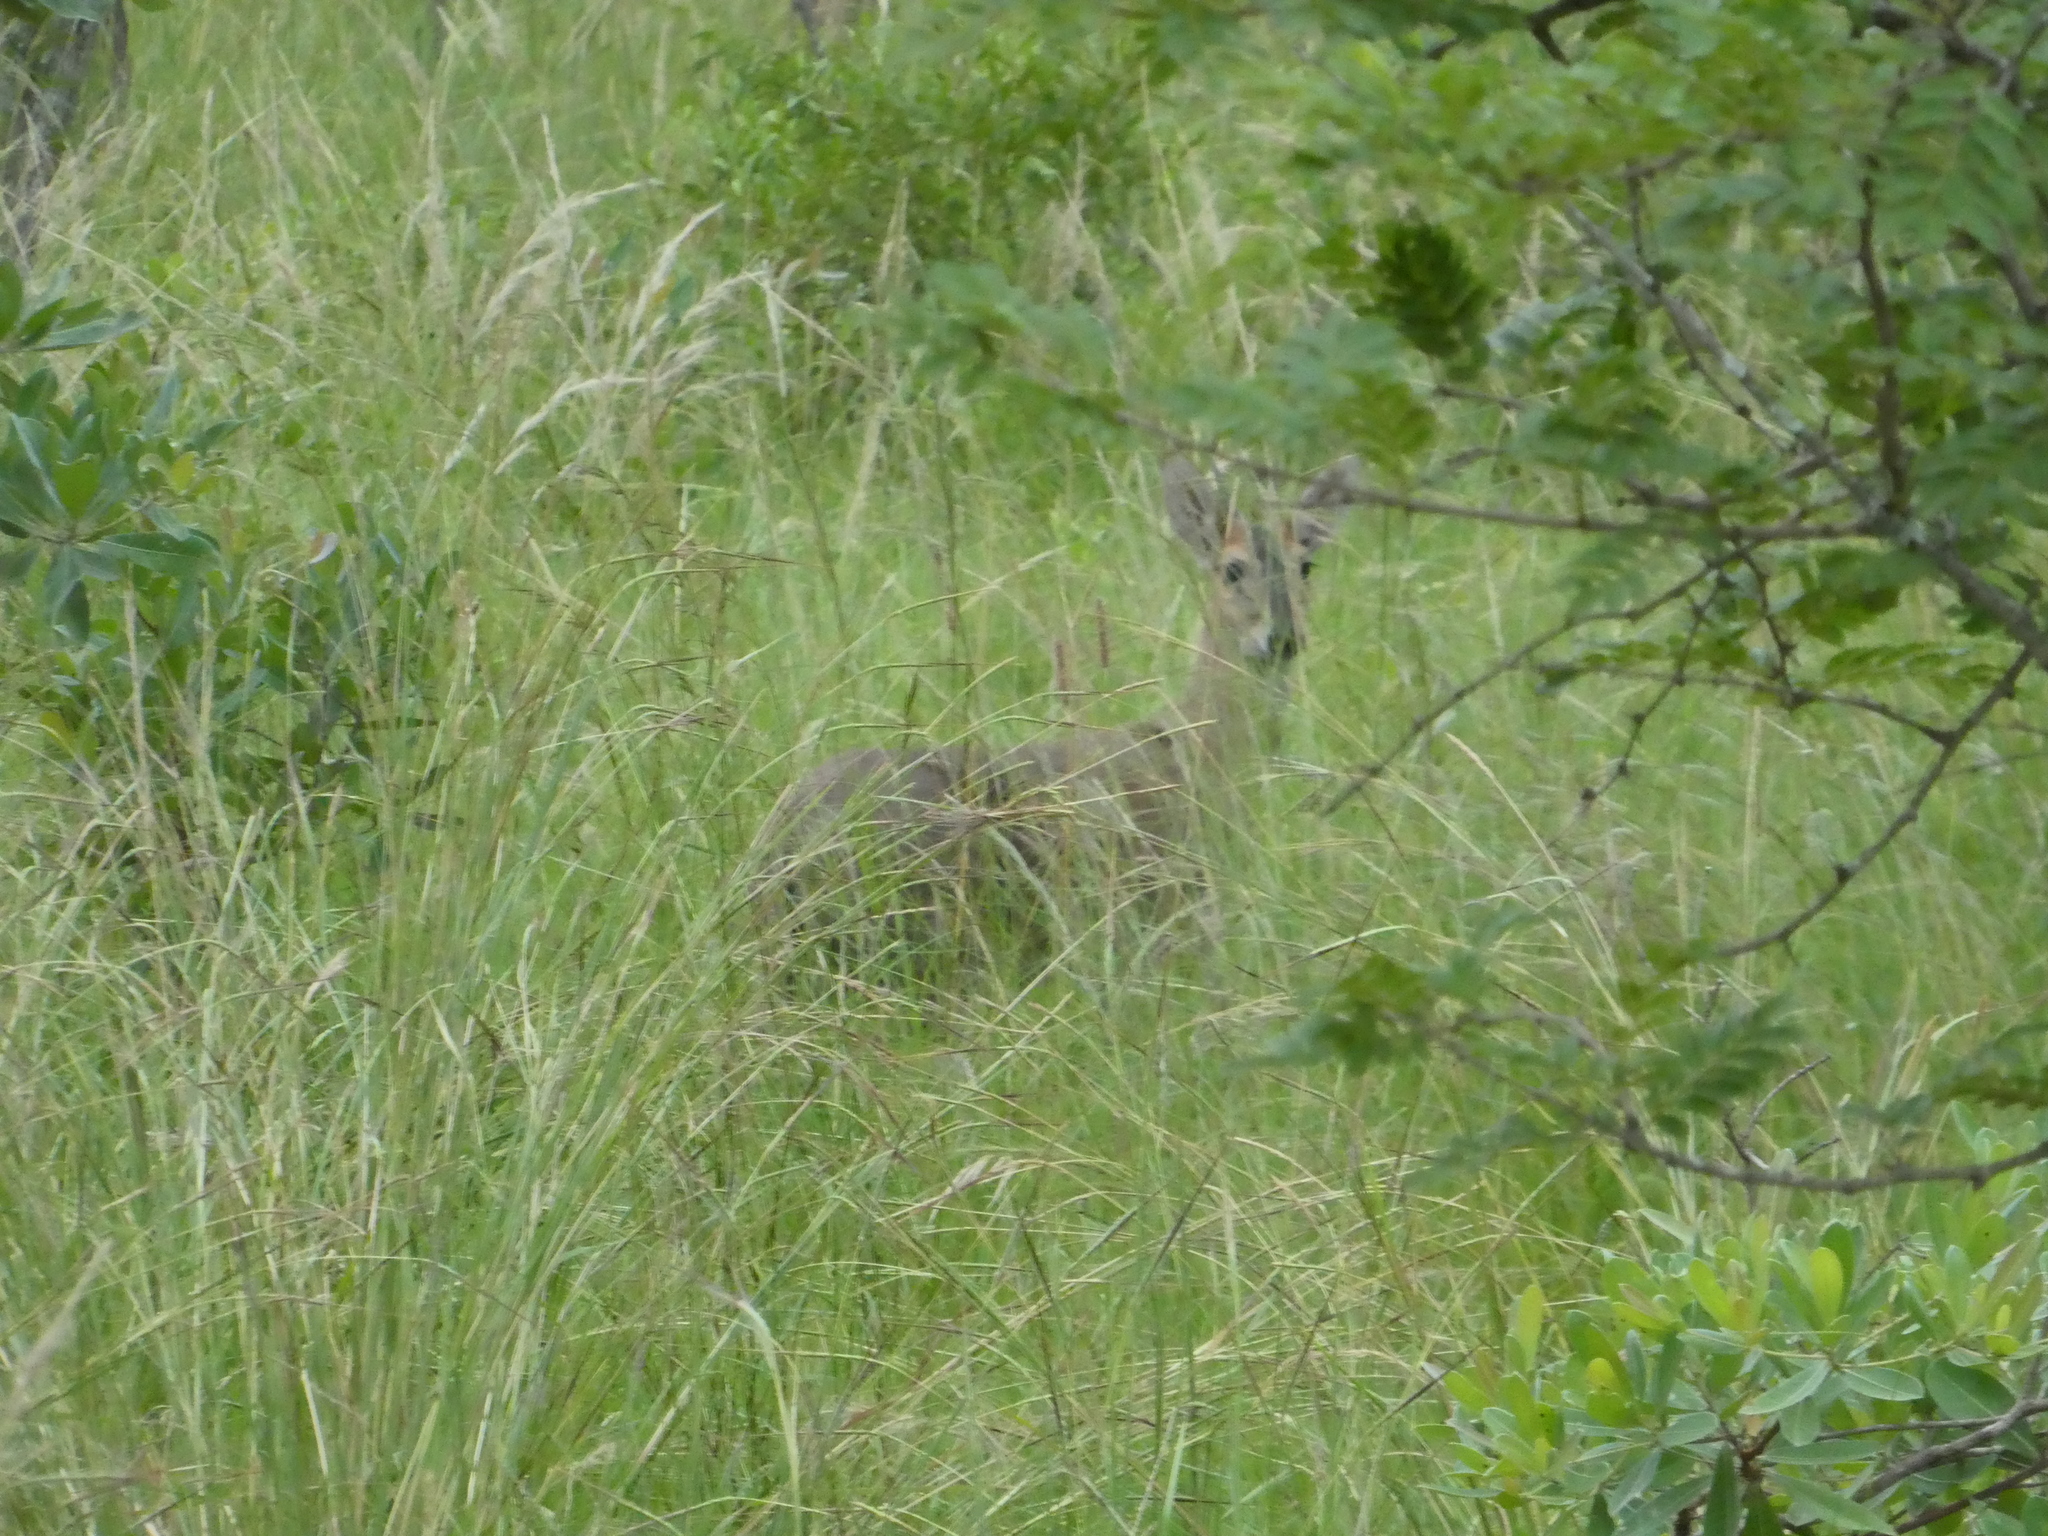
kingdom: Animalia
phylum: Chordata
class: Mammalia
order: Artiodactyla
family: Bovidae
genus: Sylvicapra
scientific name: Sylvicapra grimmia
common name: Bush duiker
